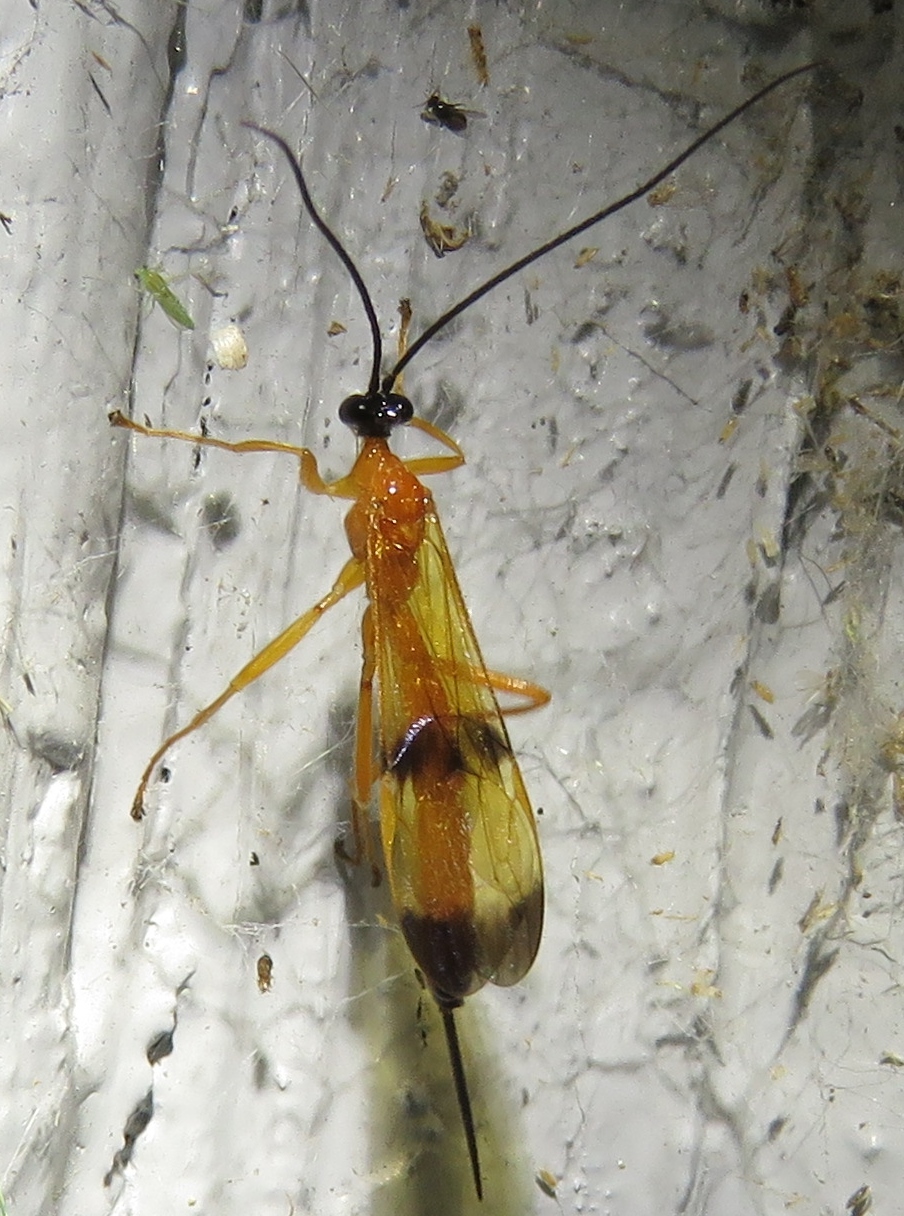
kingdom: Animalia
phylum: Arthropoda
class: Insecta
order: Hymenoptera
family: Ichneumonidae
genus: Acrotaphus
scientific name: Acrotaphus wiltii
